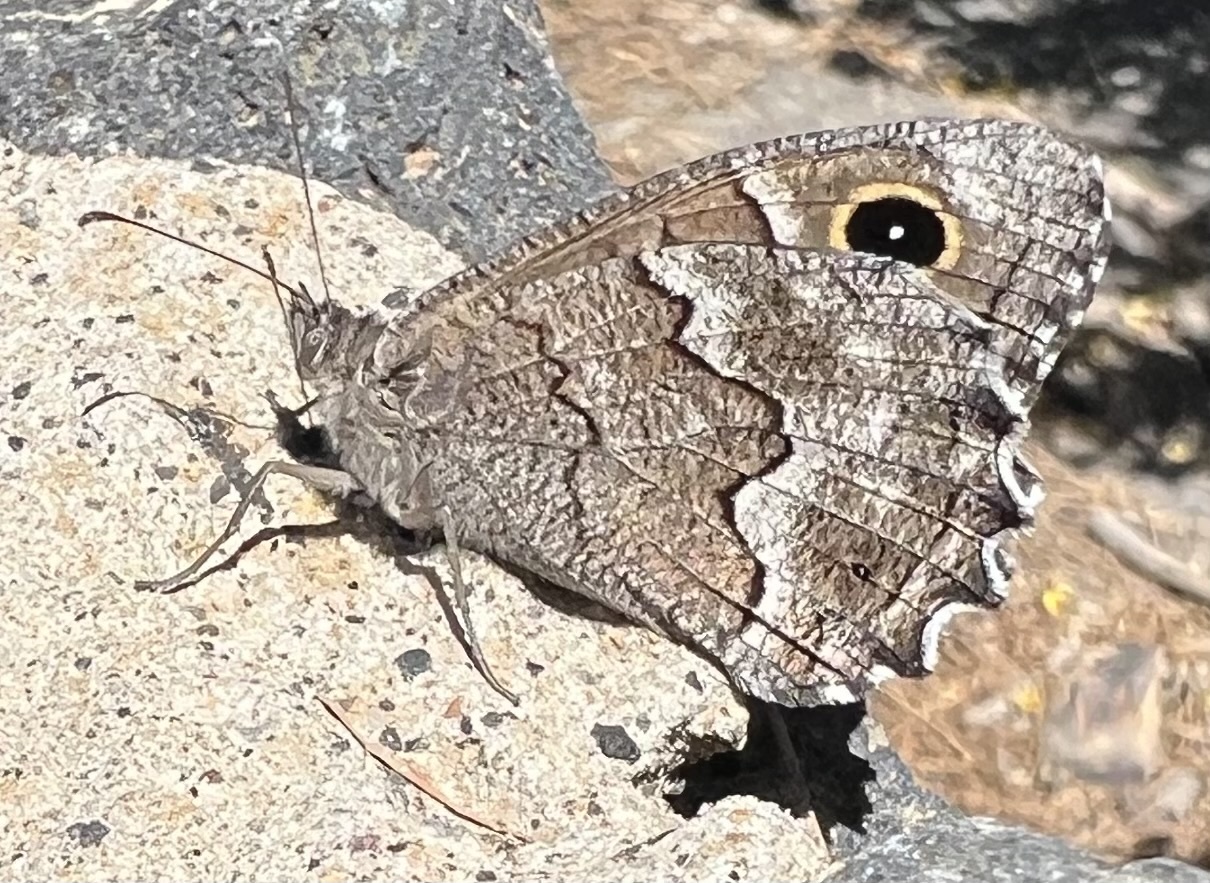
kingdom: Animalia
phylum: Arthropoda
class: Insecta
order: Lepidoptera
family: Nymphalidae
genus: Hipparchia
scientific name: Hipparchia tamadabae
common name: Gran canaria grayling
